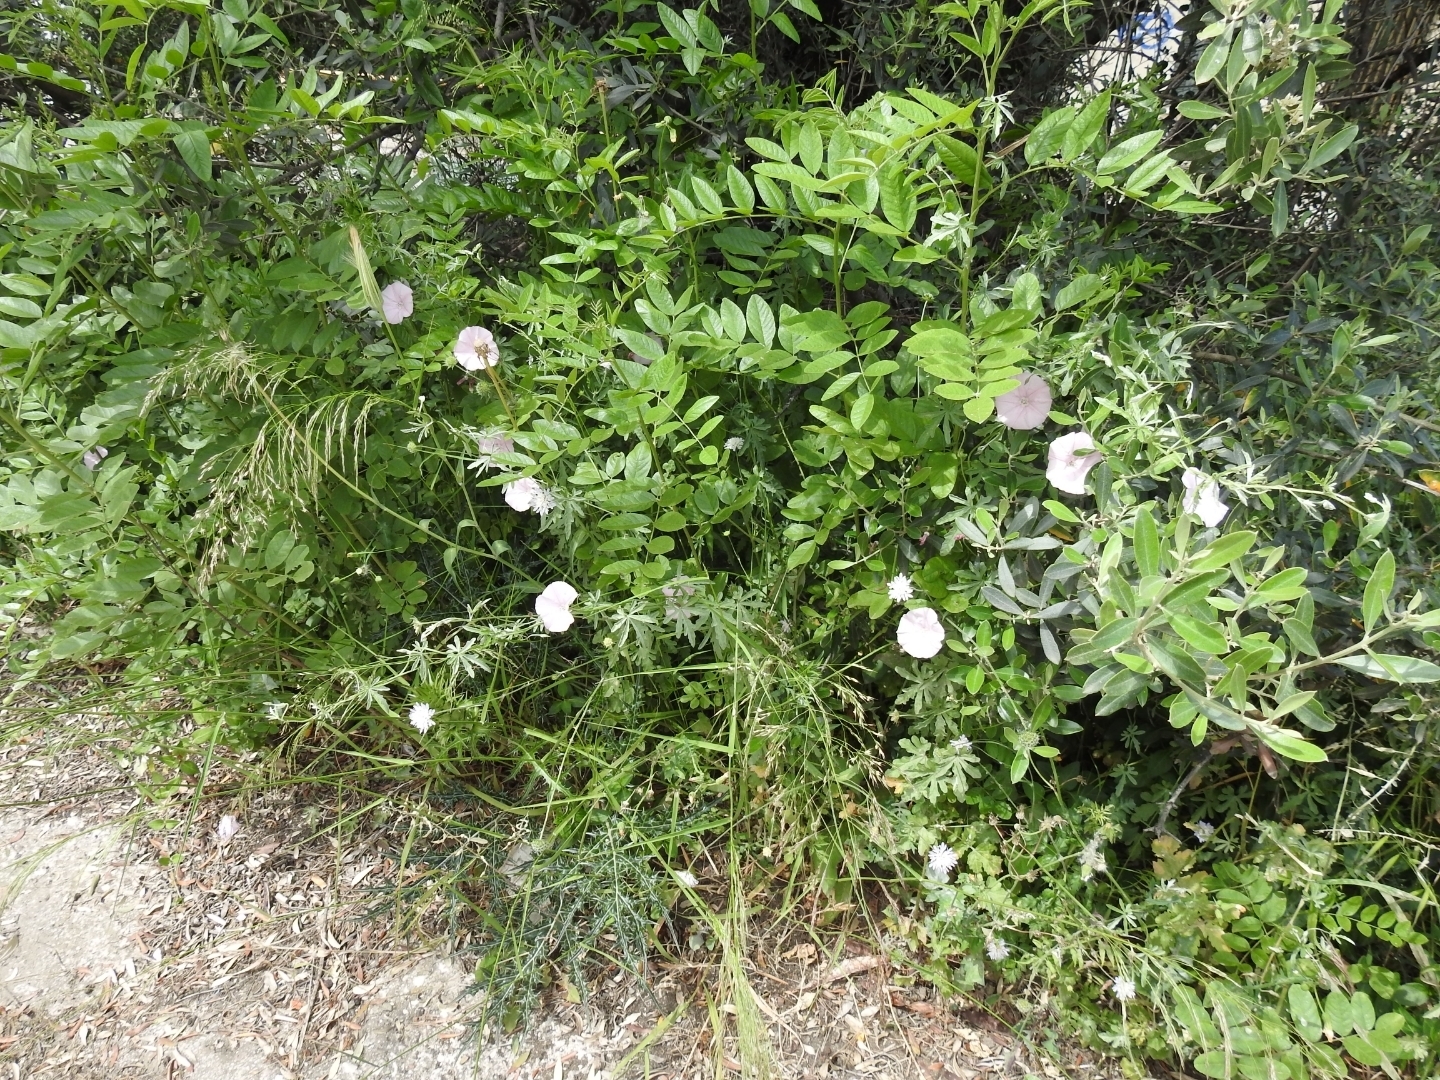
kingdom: Plantae
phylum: Tracheophyta
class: Magnoliopsida
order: Solanales
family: Convolvulaceae
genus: Convolvulus
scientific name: Convolvulus elegantissimus
